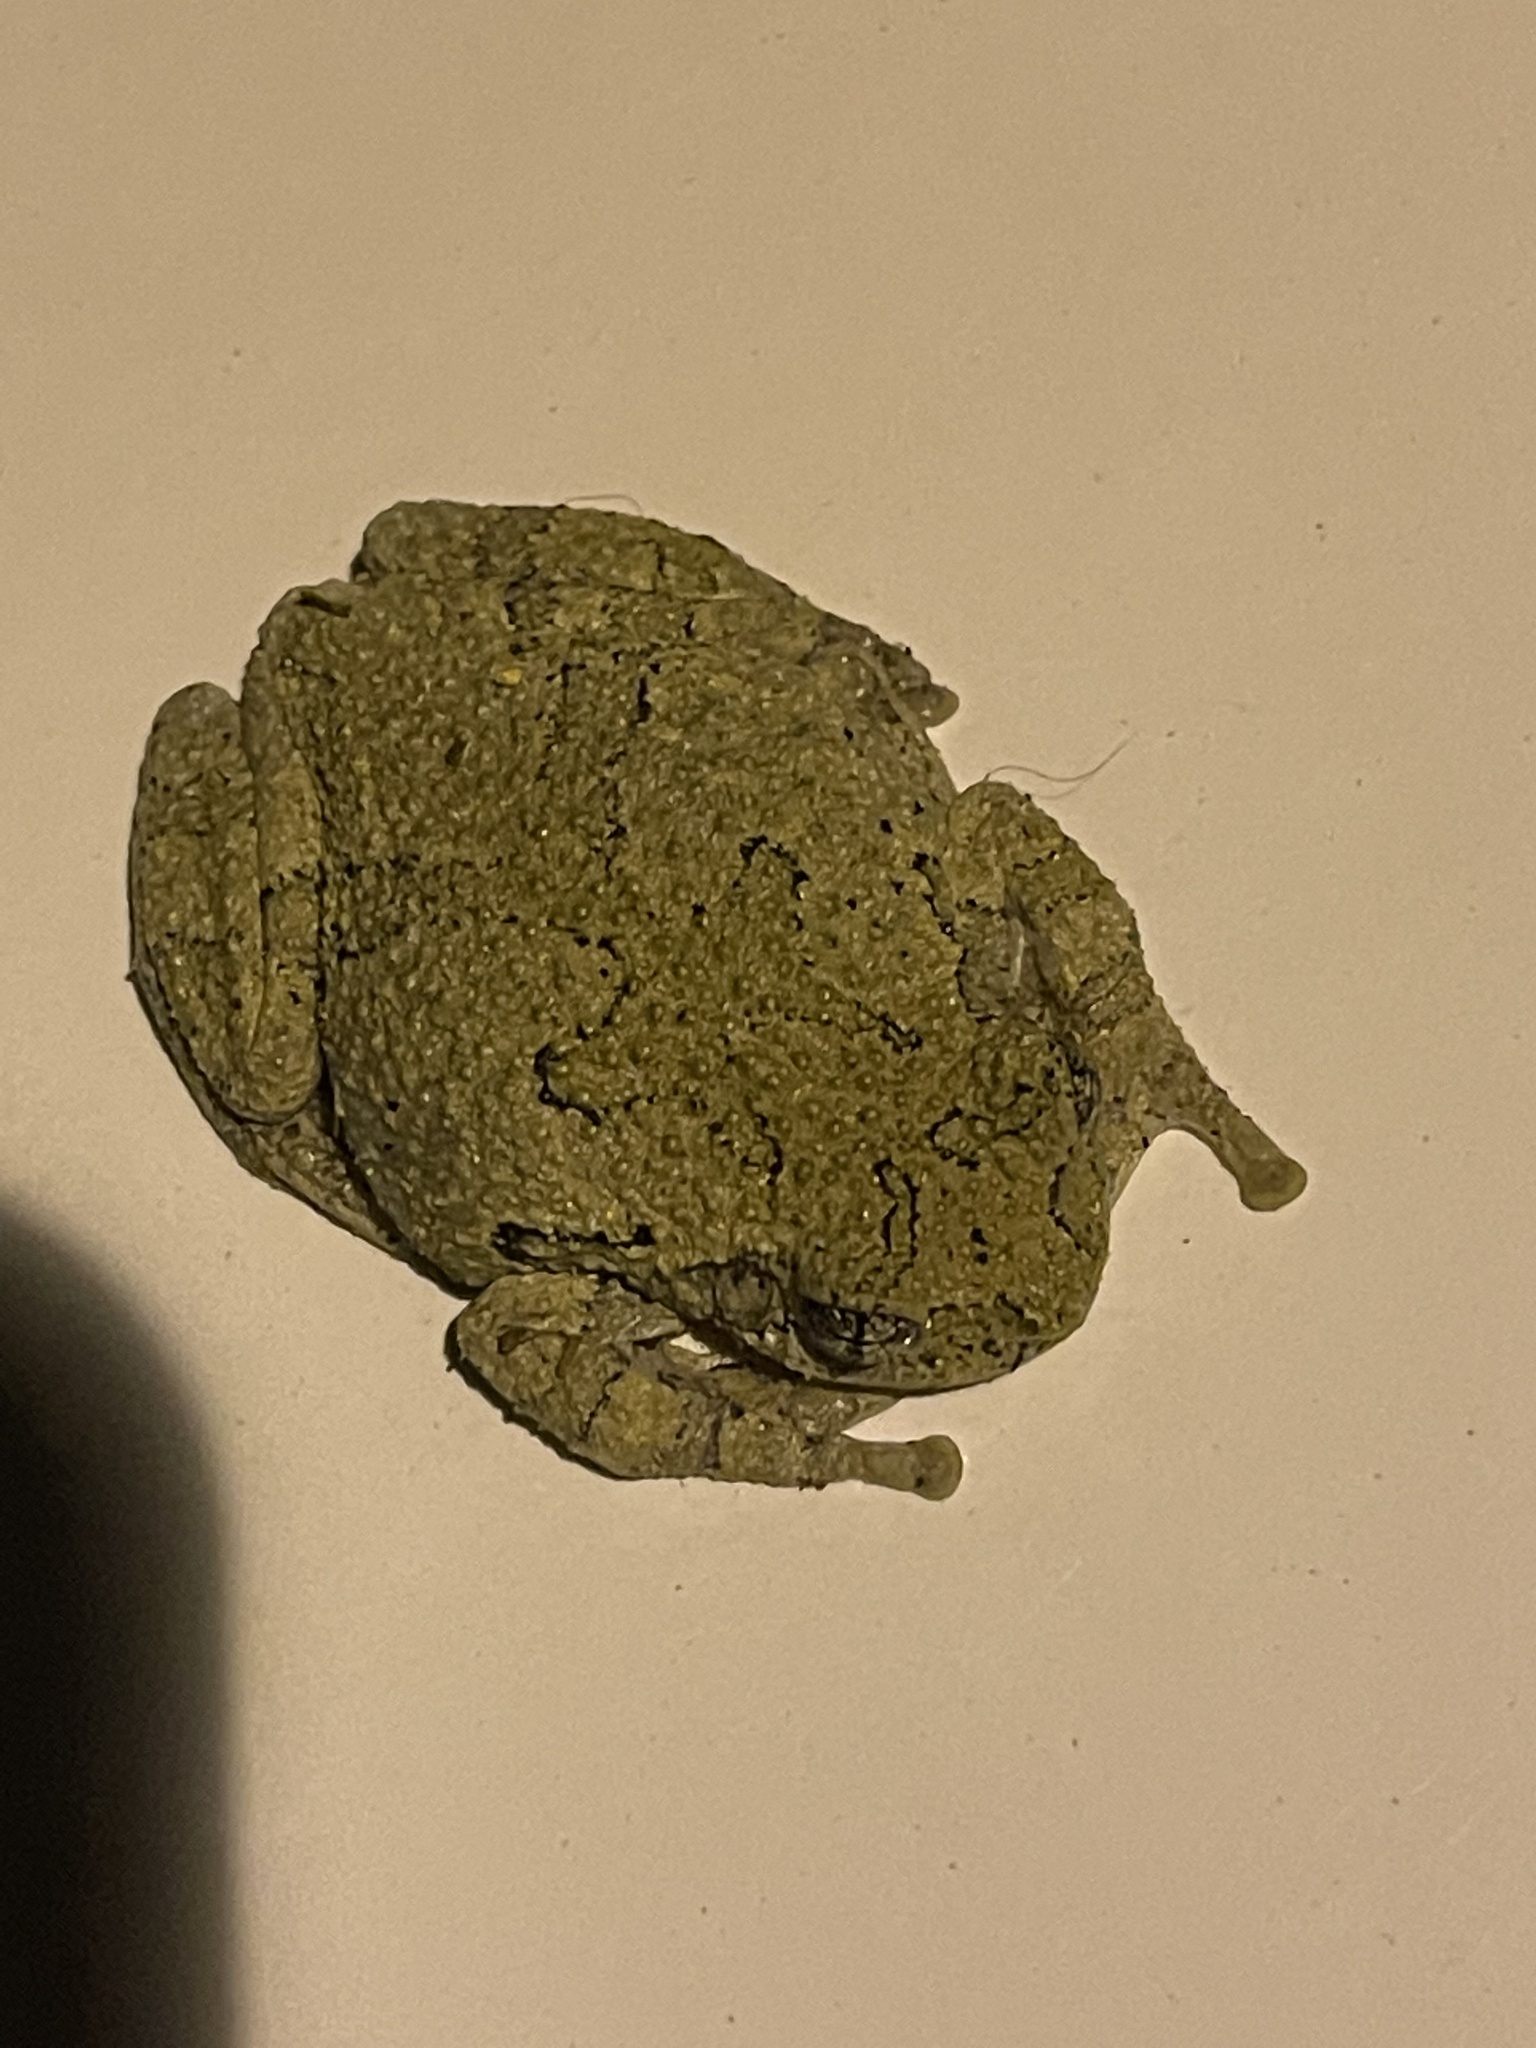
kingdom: Animalia
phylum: Chordata
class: Amphibia
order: Anura
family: Hylidae
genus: Dryophytes
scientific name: Dryophytes chrysoscelis
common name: Cope's gray treefrog
